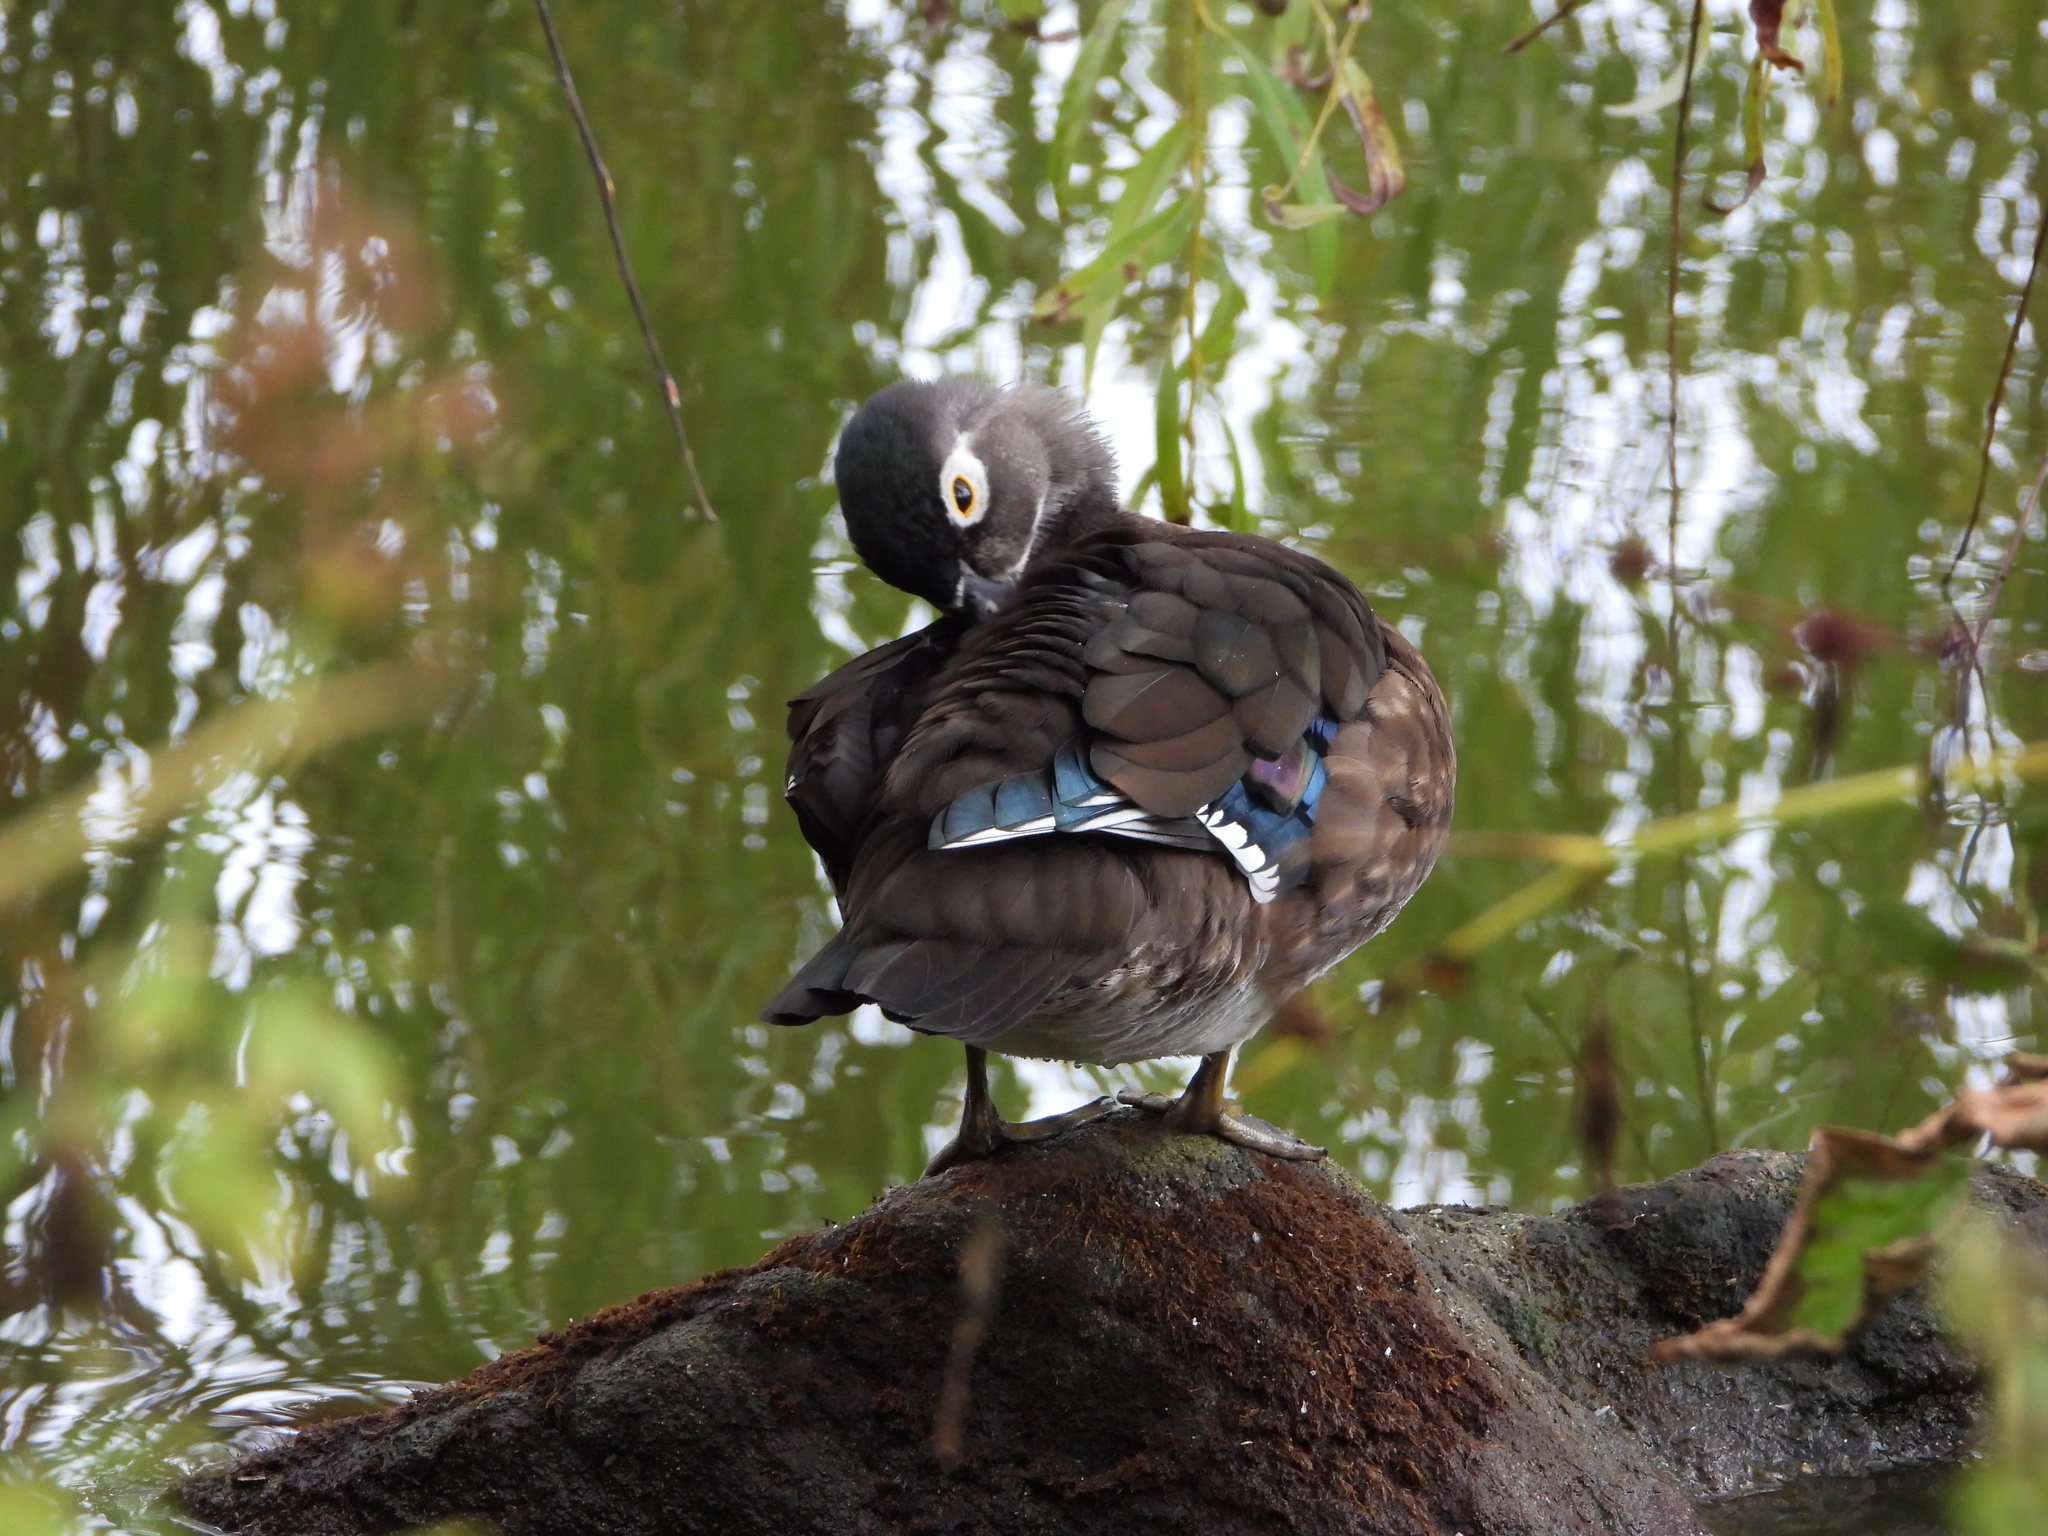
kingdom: Animalia
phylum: Chordata
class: Aves
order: Anseriformes
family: Anatidae
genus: Aix
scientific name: Aix sponsa
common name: Wood duck
